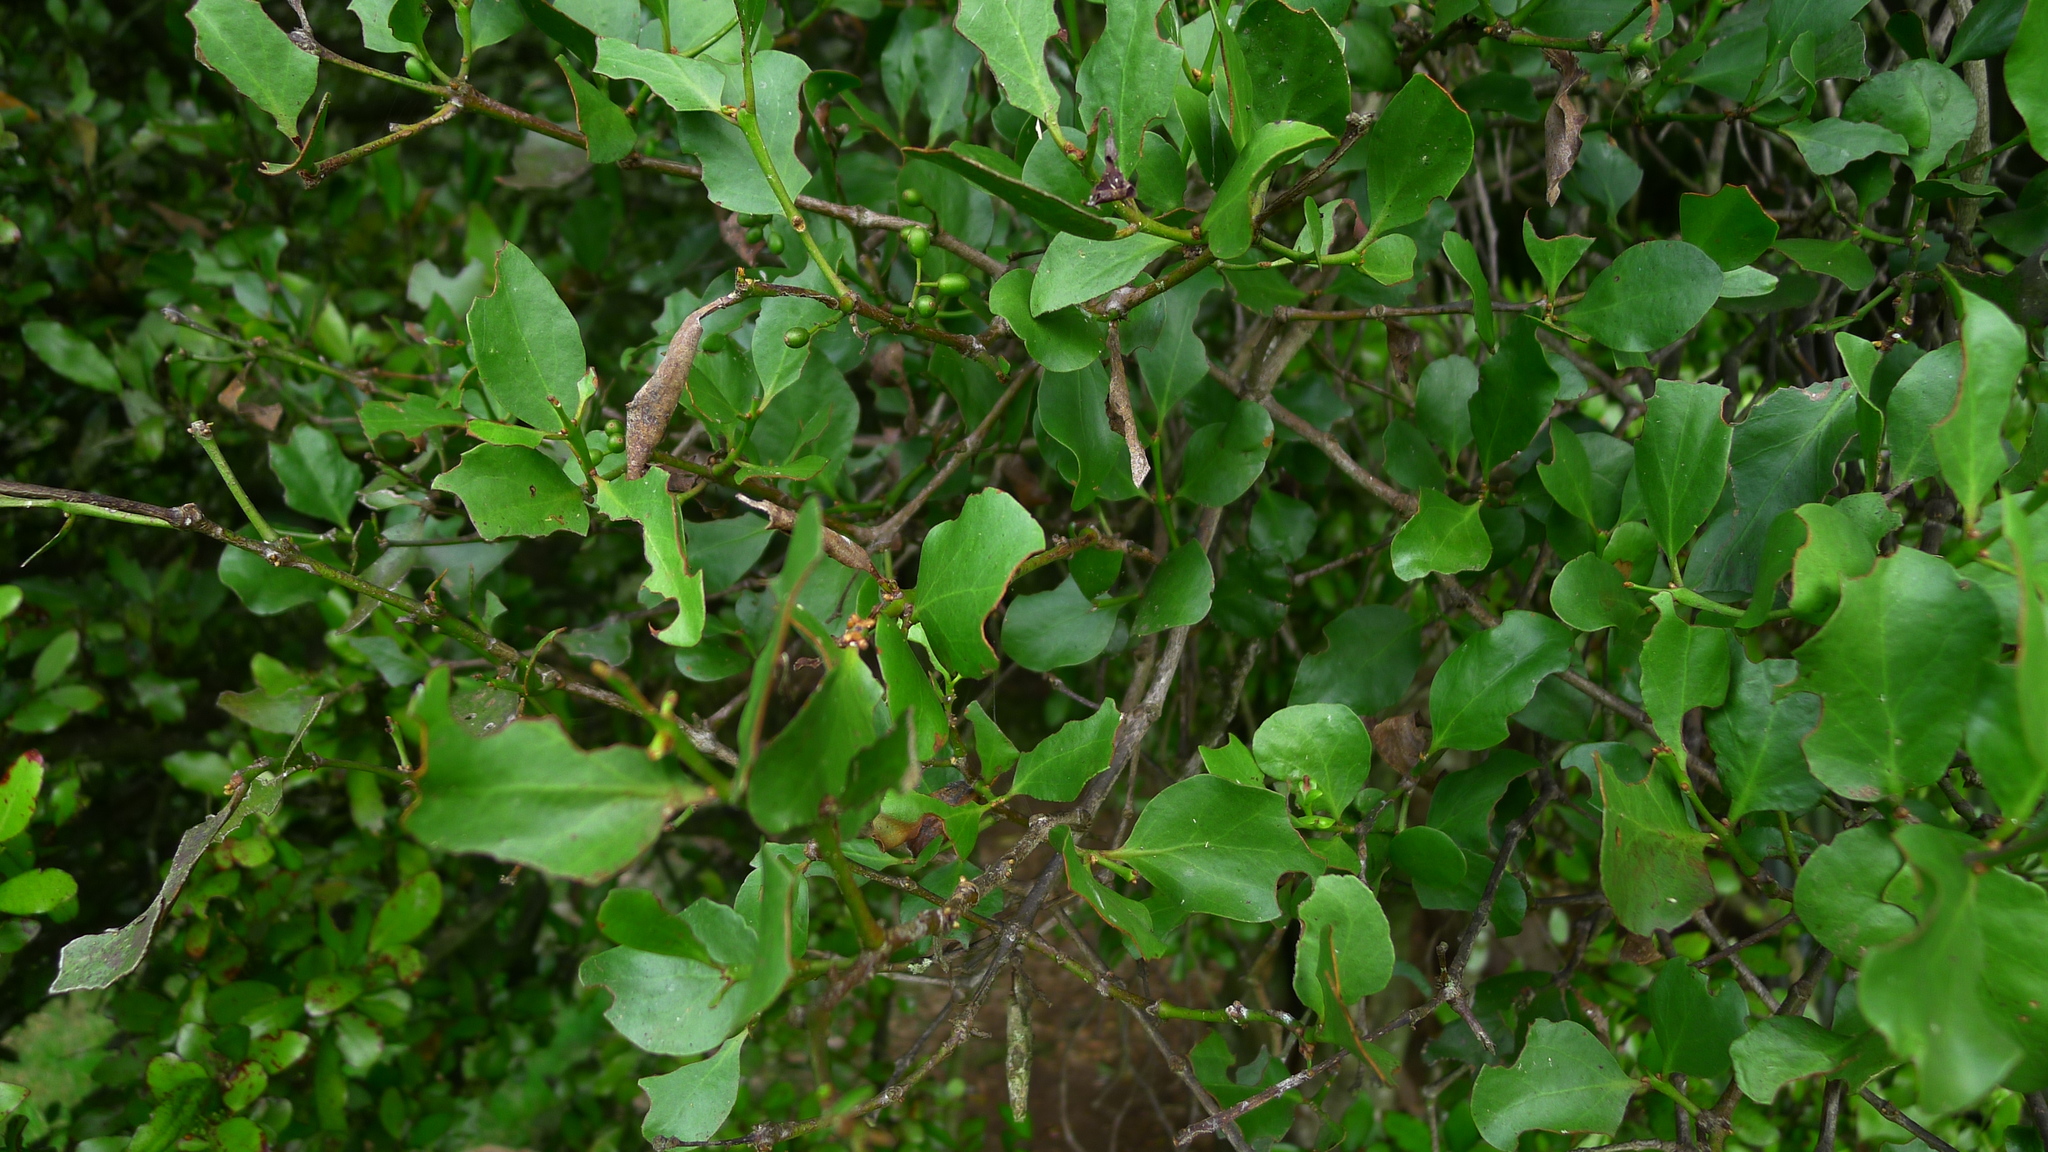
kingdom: Plantae
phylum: Tracheophyta
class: Magnoliopsida
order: Santalales
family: Loranthaceae
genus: Ileostylus
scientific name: Ileostylus micranthus
